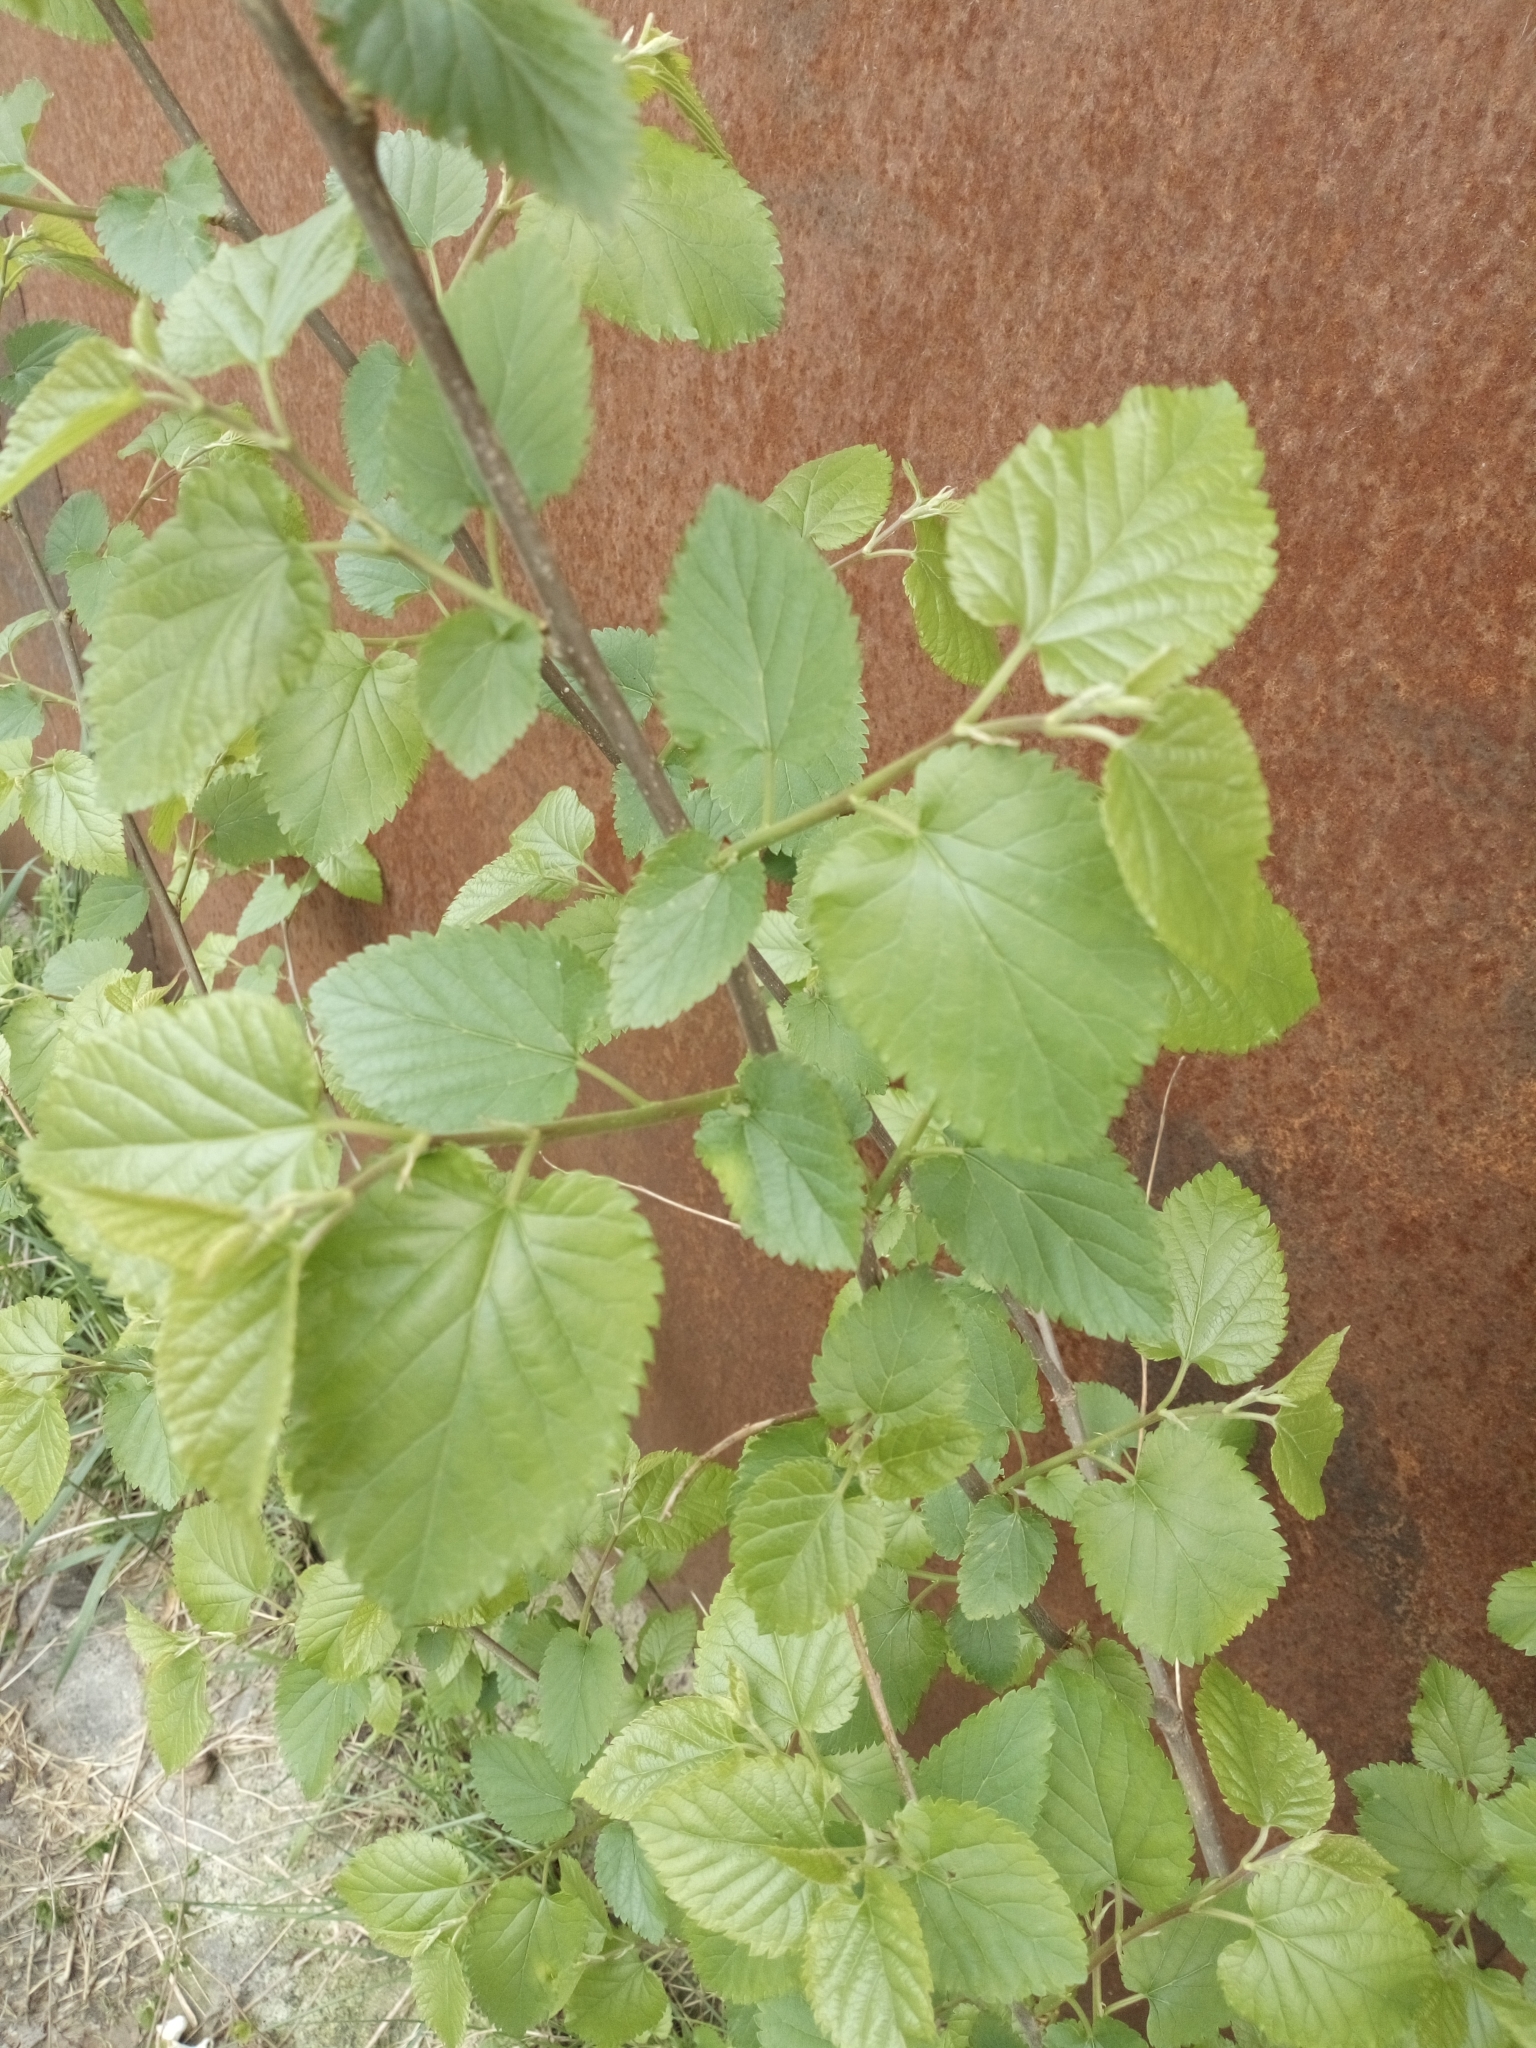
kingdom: Plantae
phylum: Tracheophyta
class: Magnoliopsida
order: Rosales
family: Moraceae
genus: Morus
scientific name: Morus alba
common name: White mulberry
